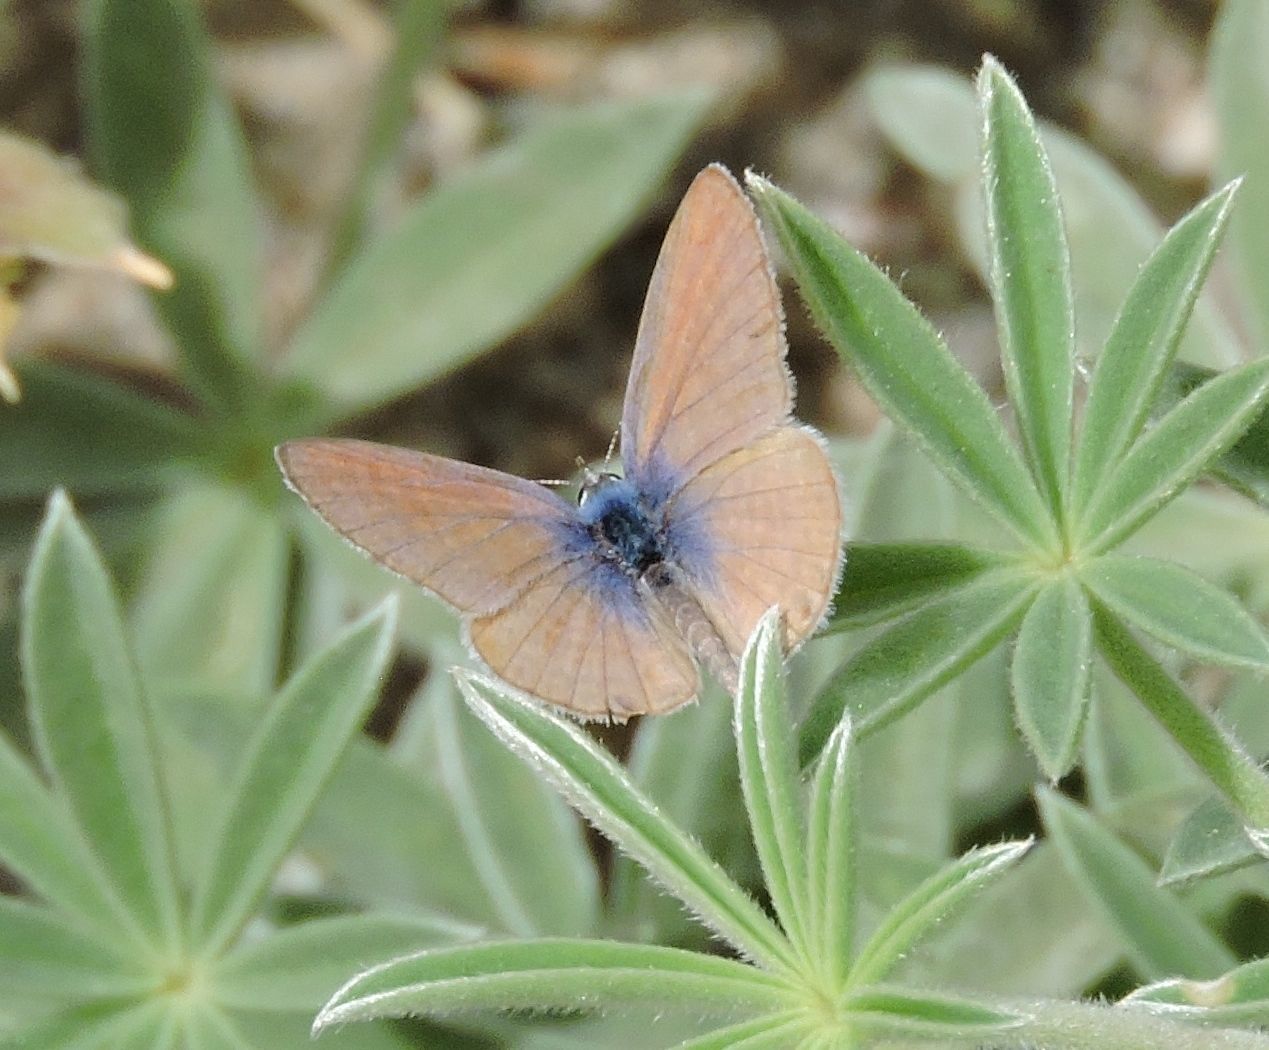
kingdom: Animalia
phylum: Arthropoda
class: Insecta
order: Lepidoptera
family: Lycaenidae
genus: Leptotes
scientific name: Leptotes marina
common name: Marine blue
